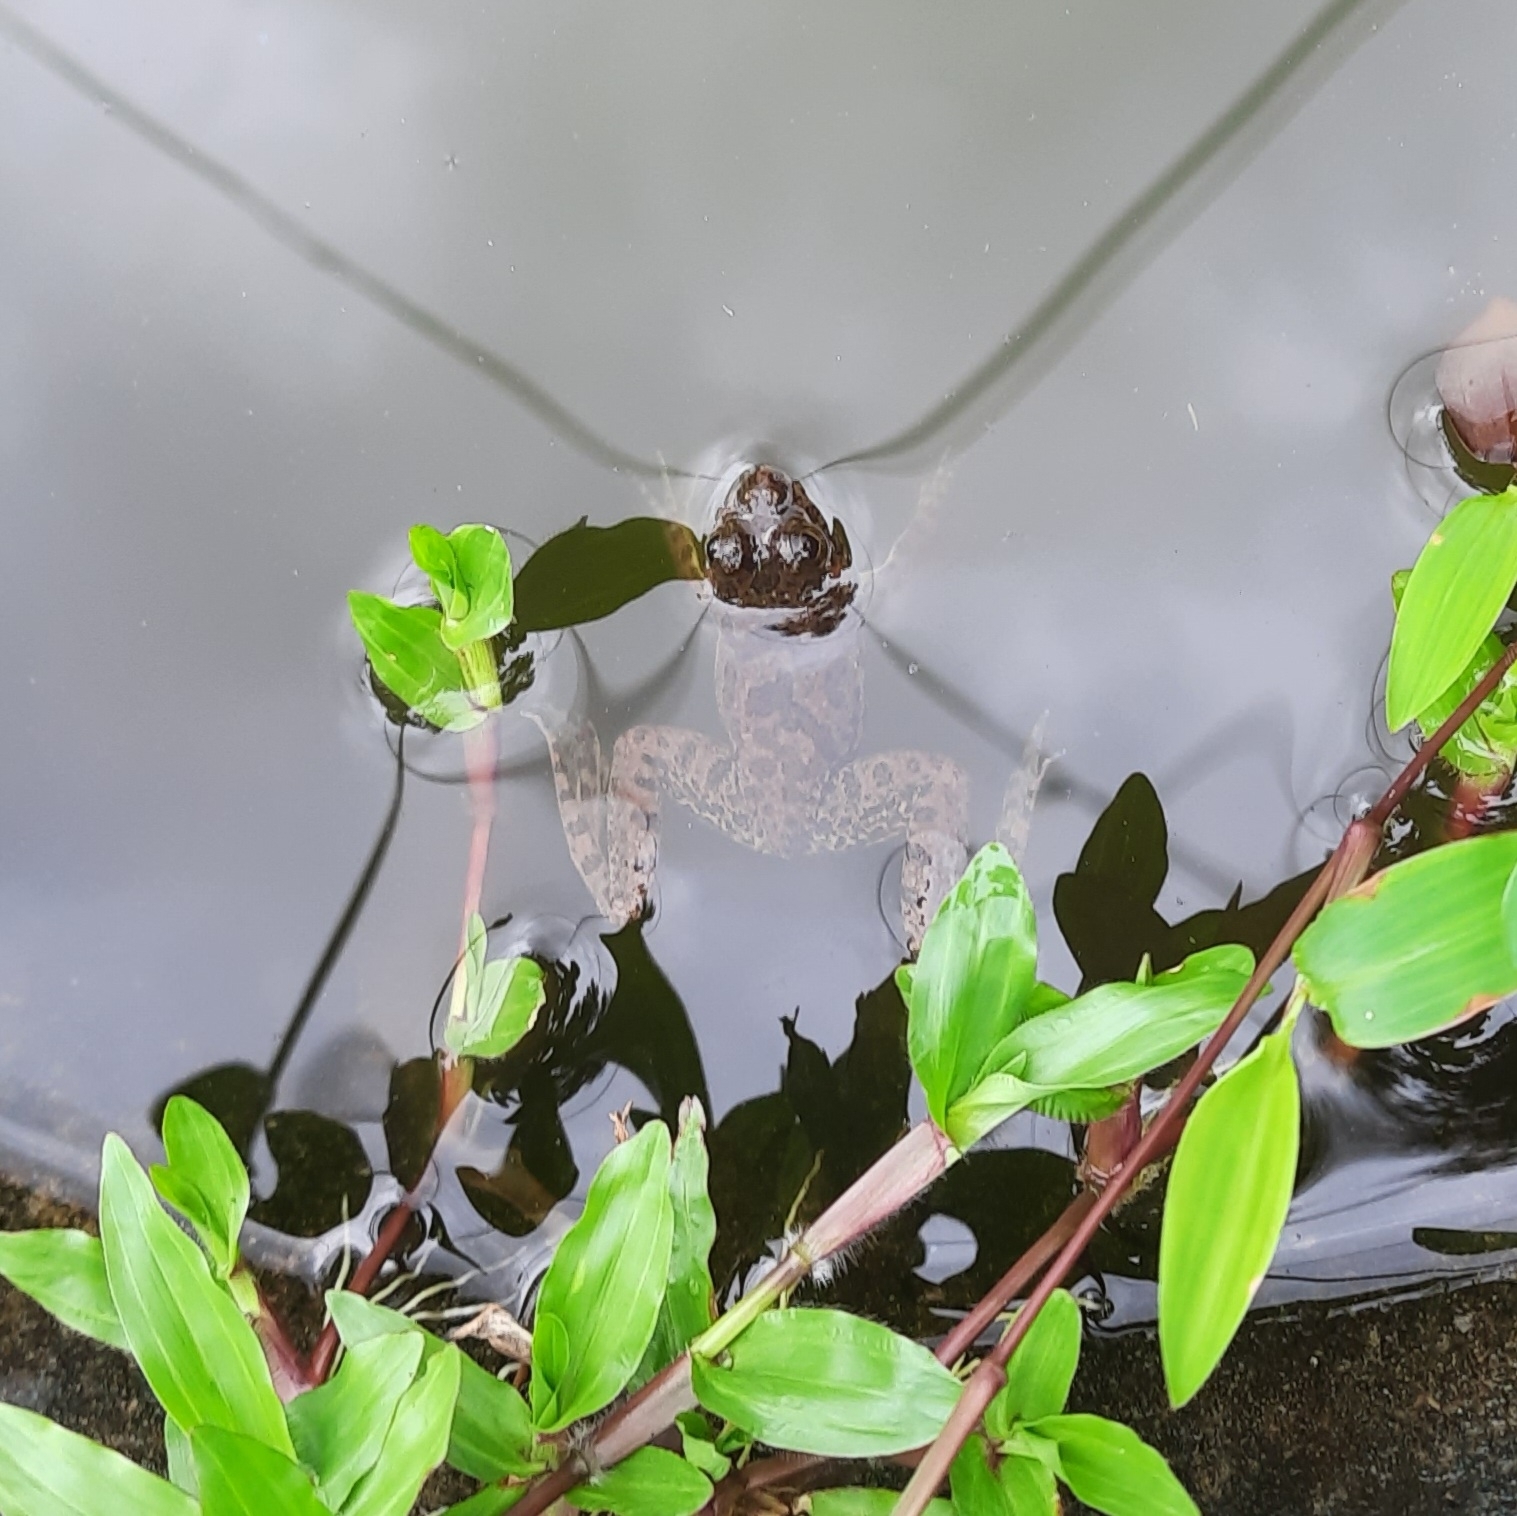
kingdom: Animalia
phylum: Chordata
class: Amphibia
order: Anura
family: Dicroglossidae
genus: Euphlyctis
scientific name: Euphlyctis cyanophlyctis
